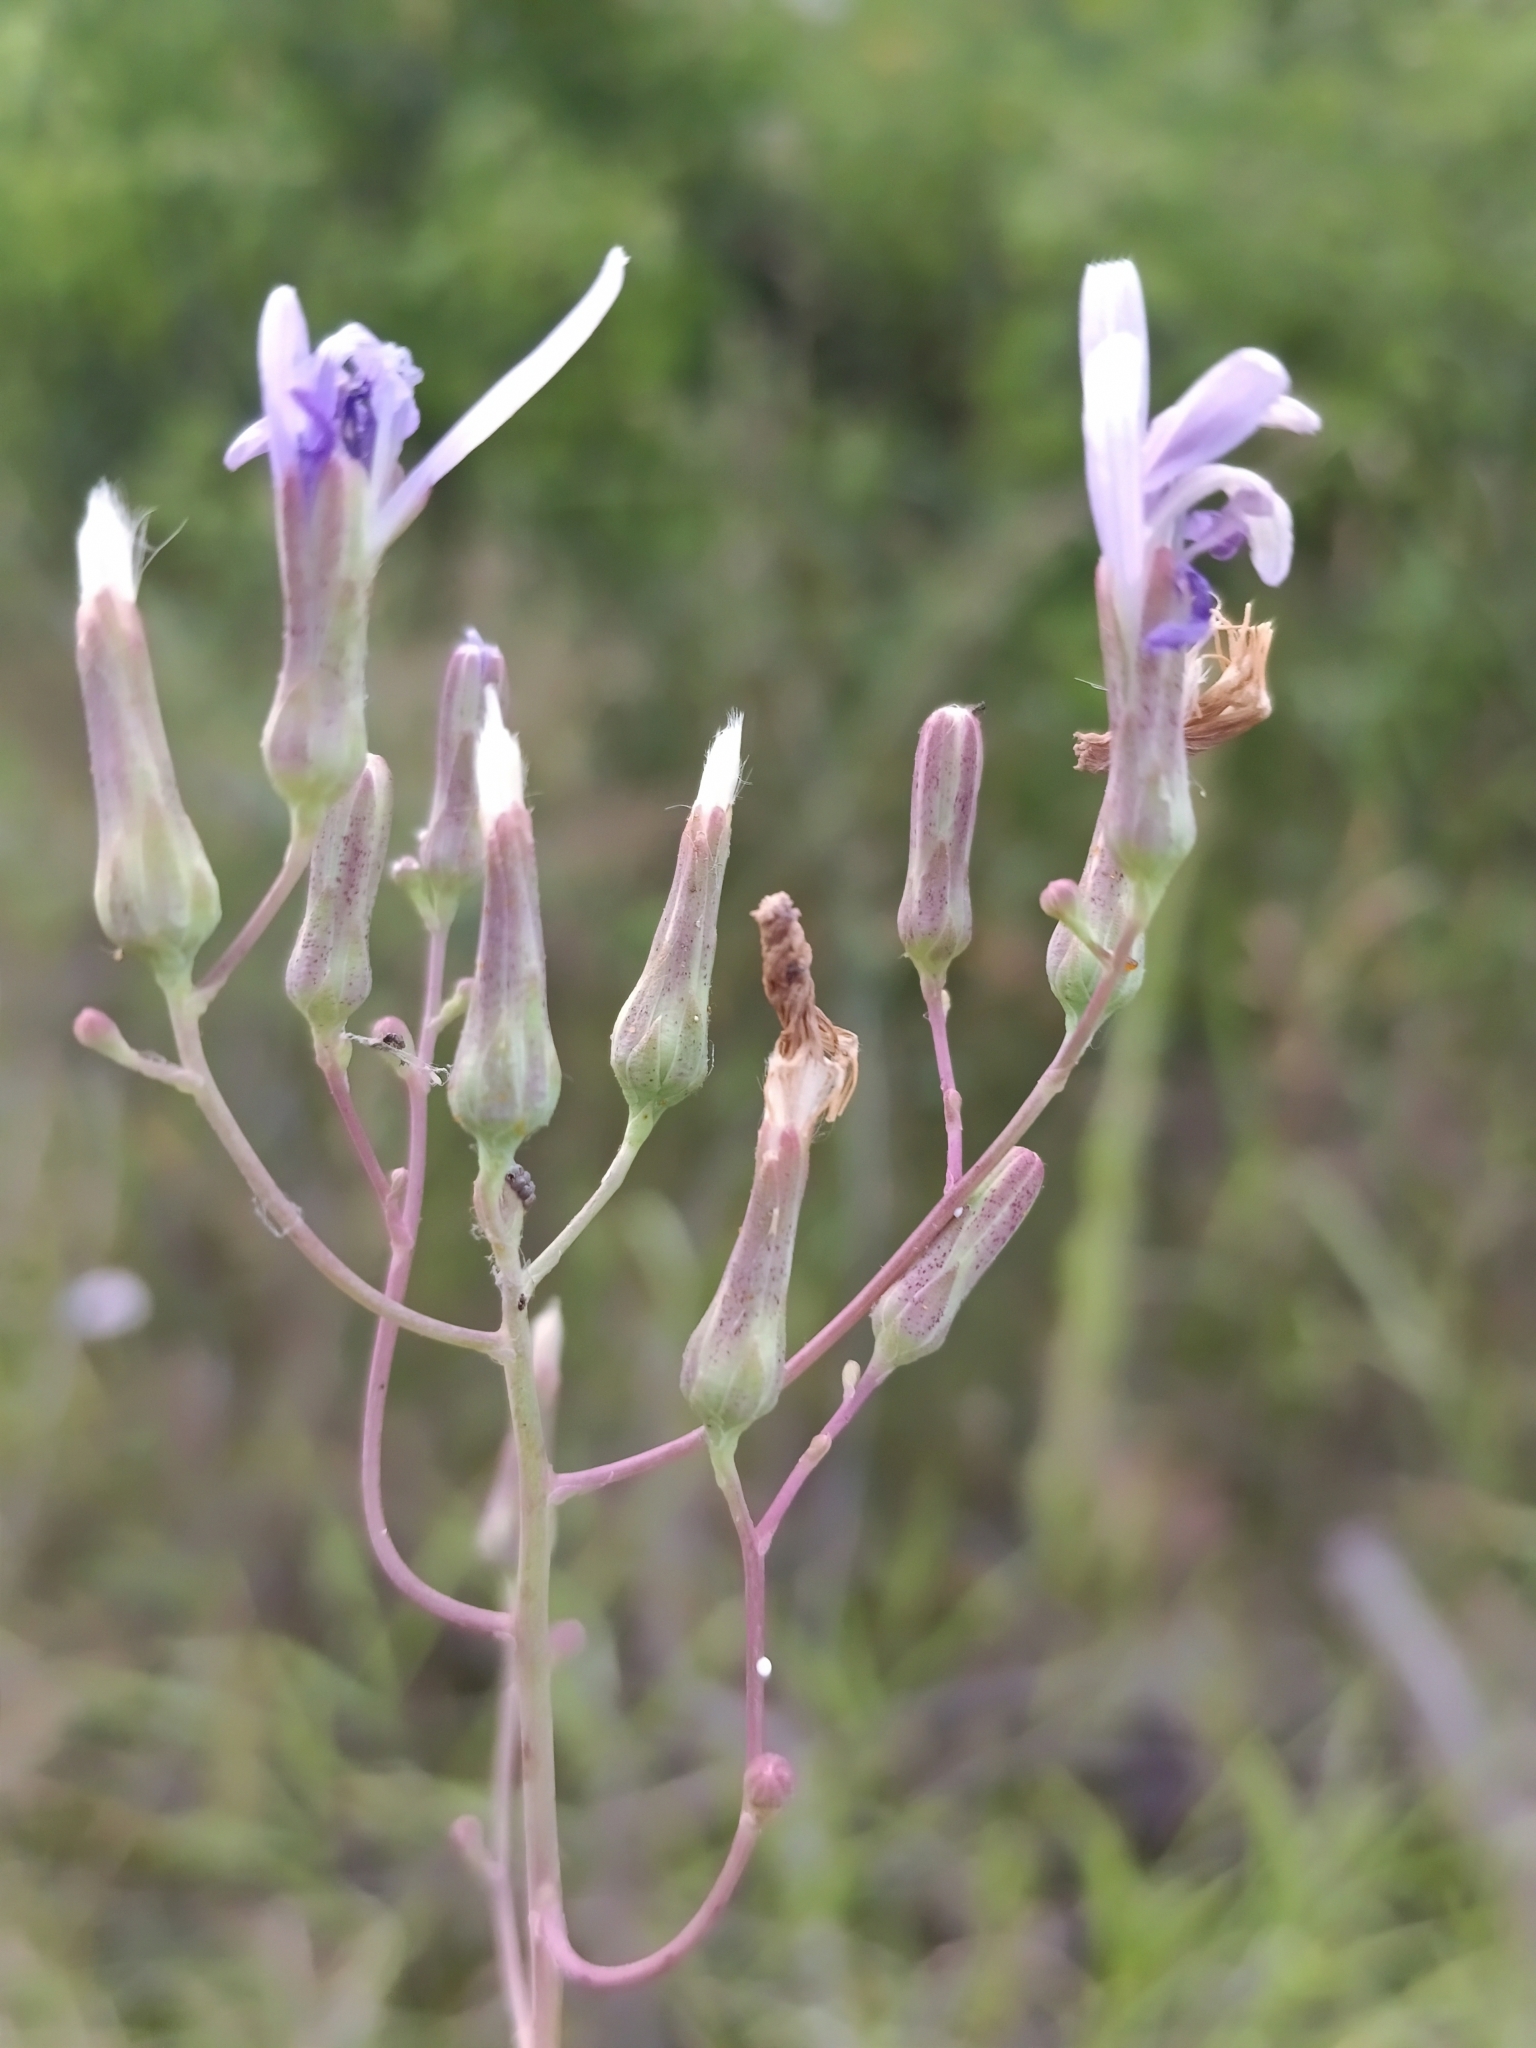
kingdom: Plantae
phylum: Tracheophyta
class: Magnoliopsida
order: Asterales
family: Asteraceae
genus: Lactuca
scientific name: Lactuca tatarica
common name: Blue lettuce
